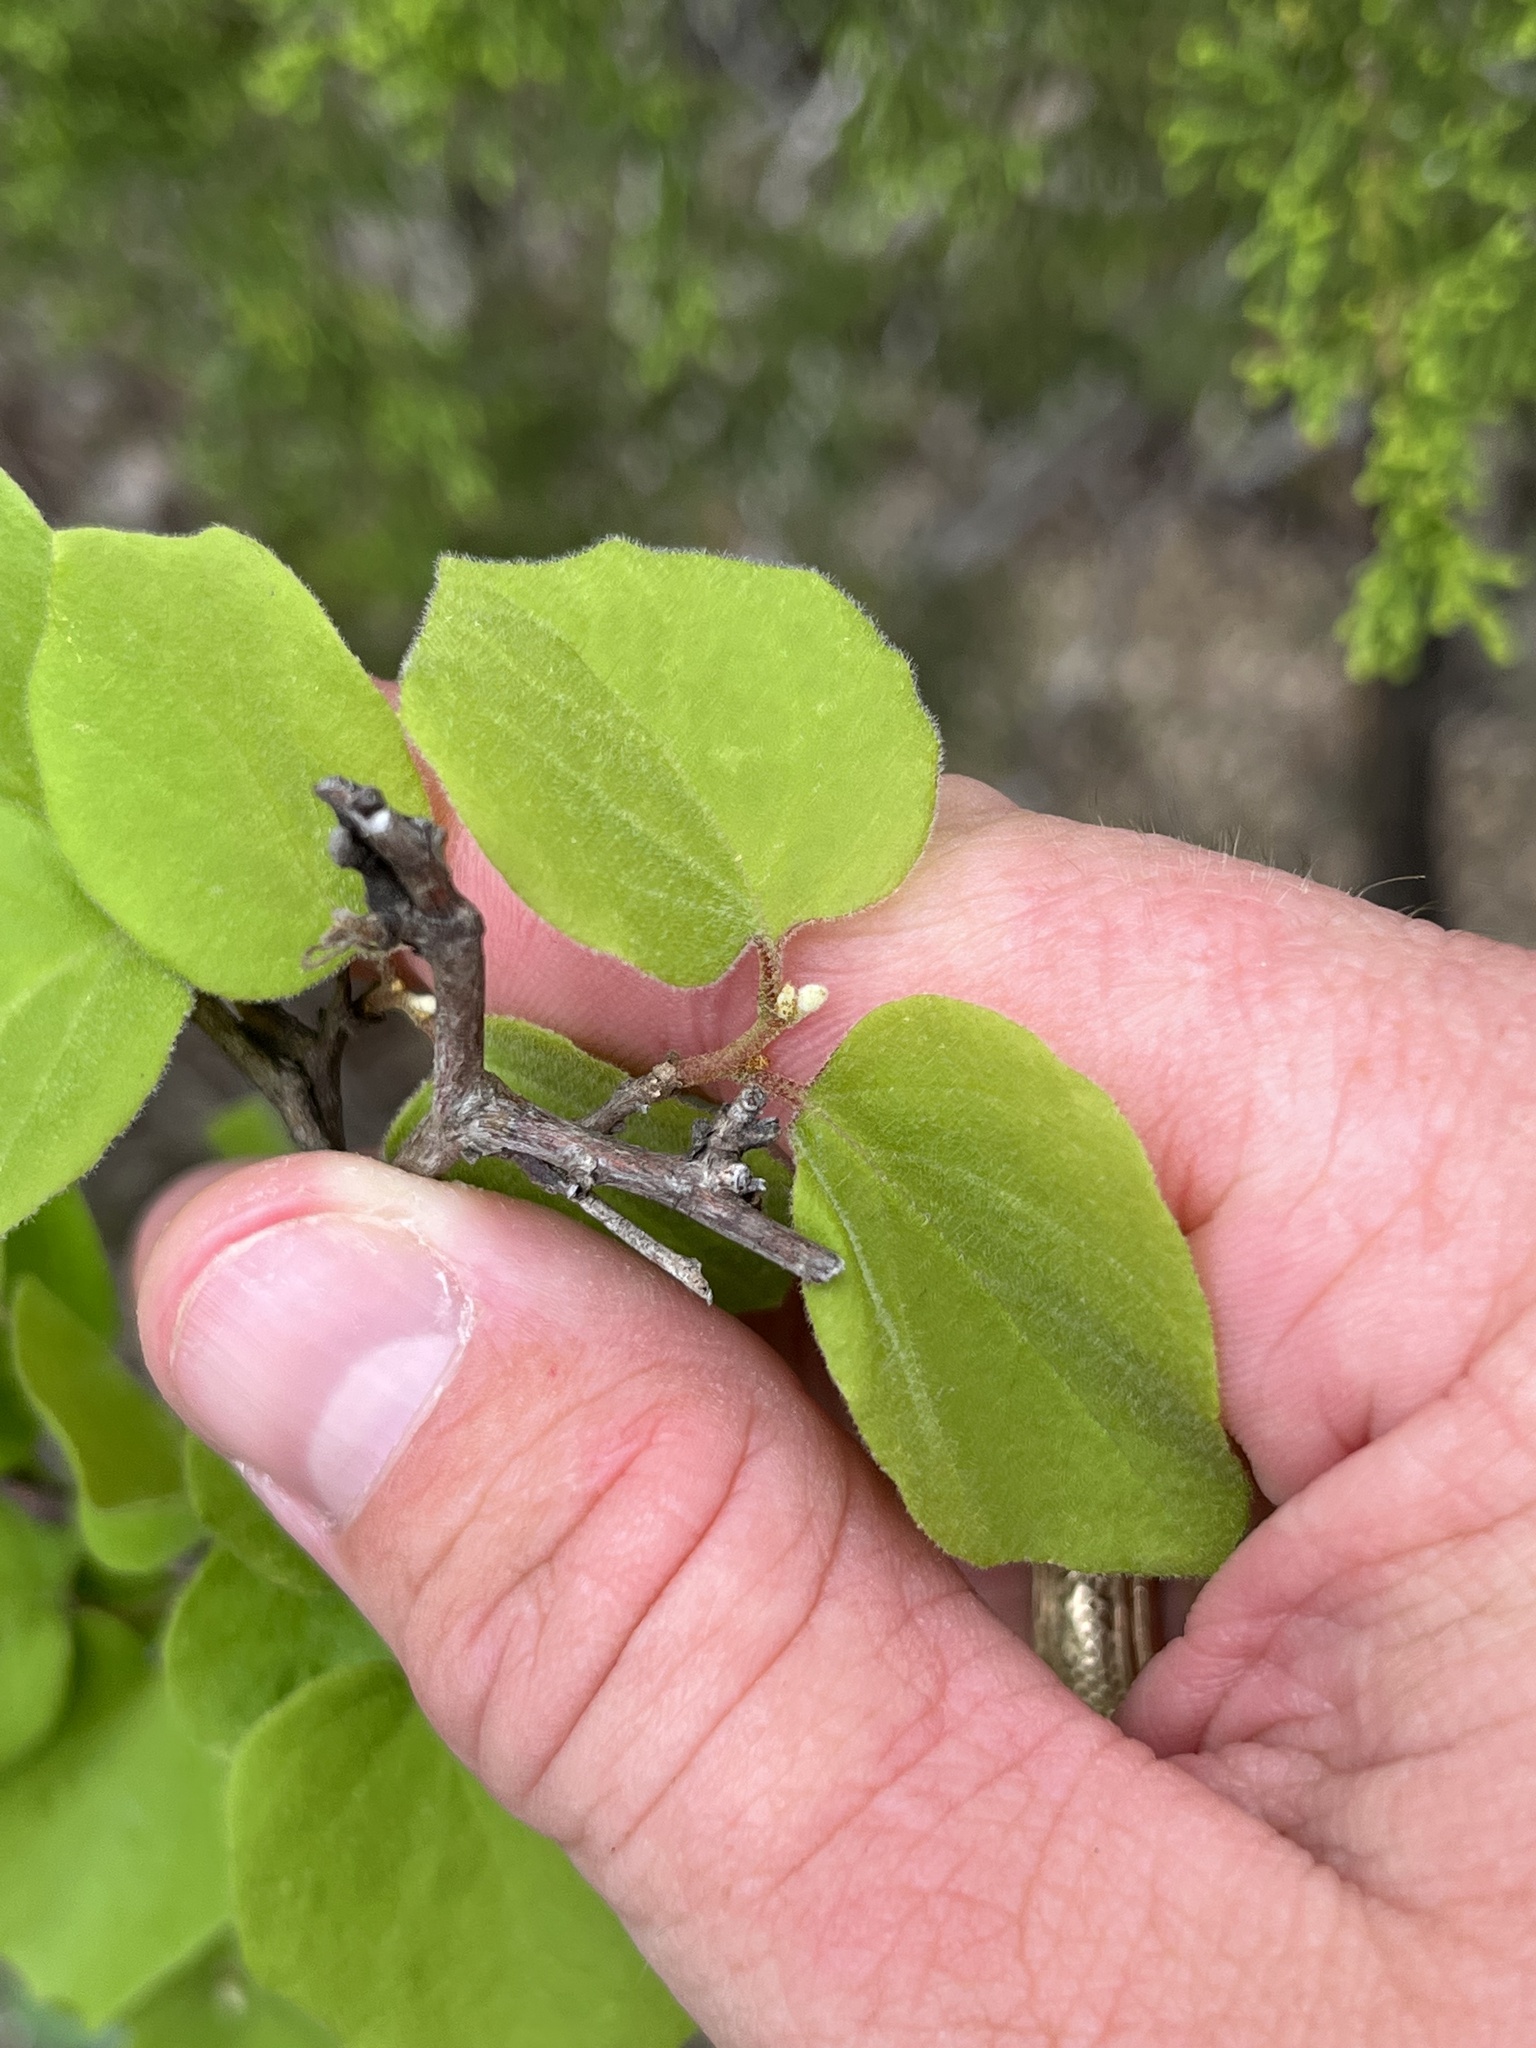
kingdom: Plantae
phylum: Tracheophyta
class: Magnoliopsida
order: Ericales
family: Styracaceae
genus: Styrax
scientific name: Styrax platanifolius
